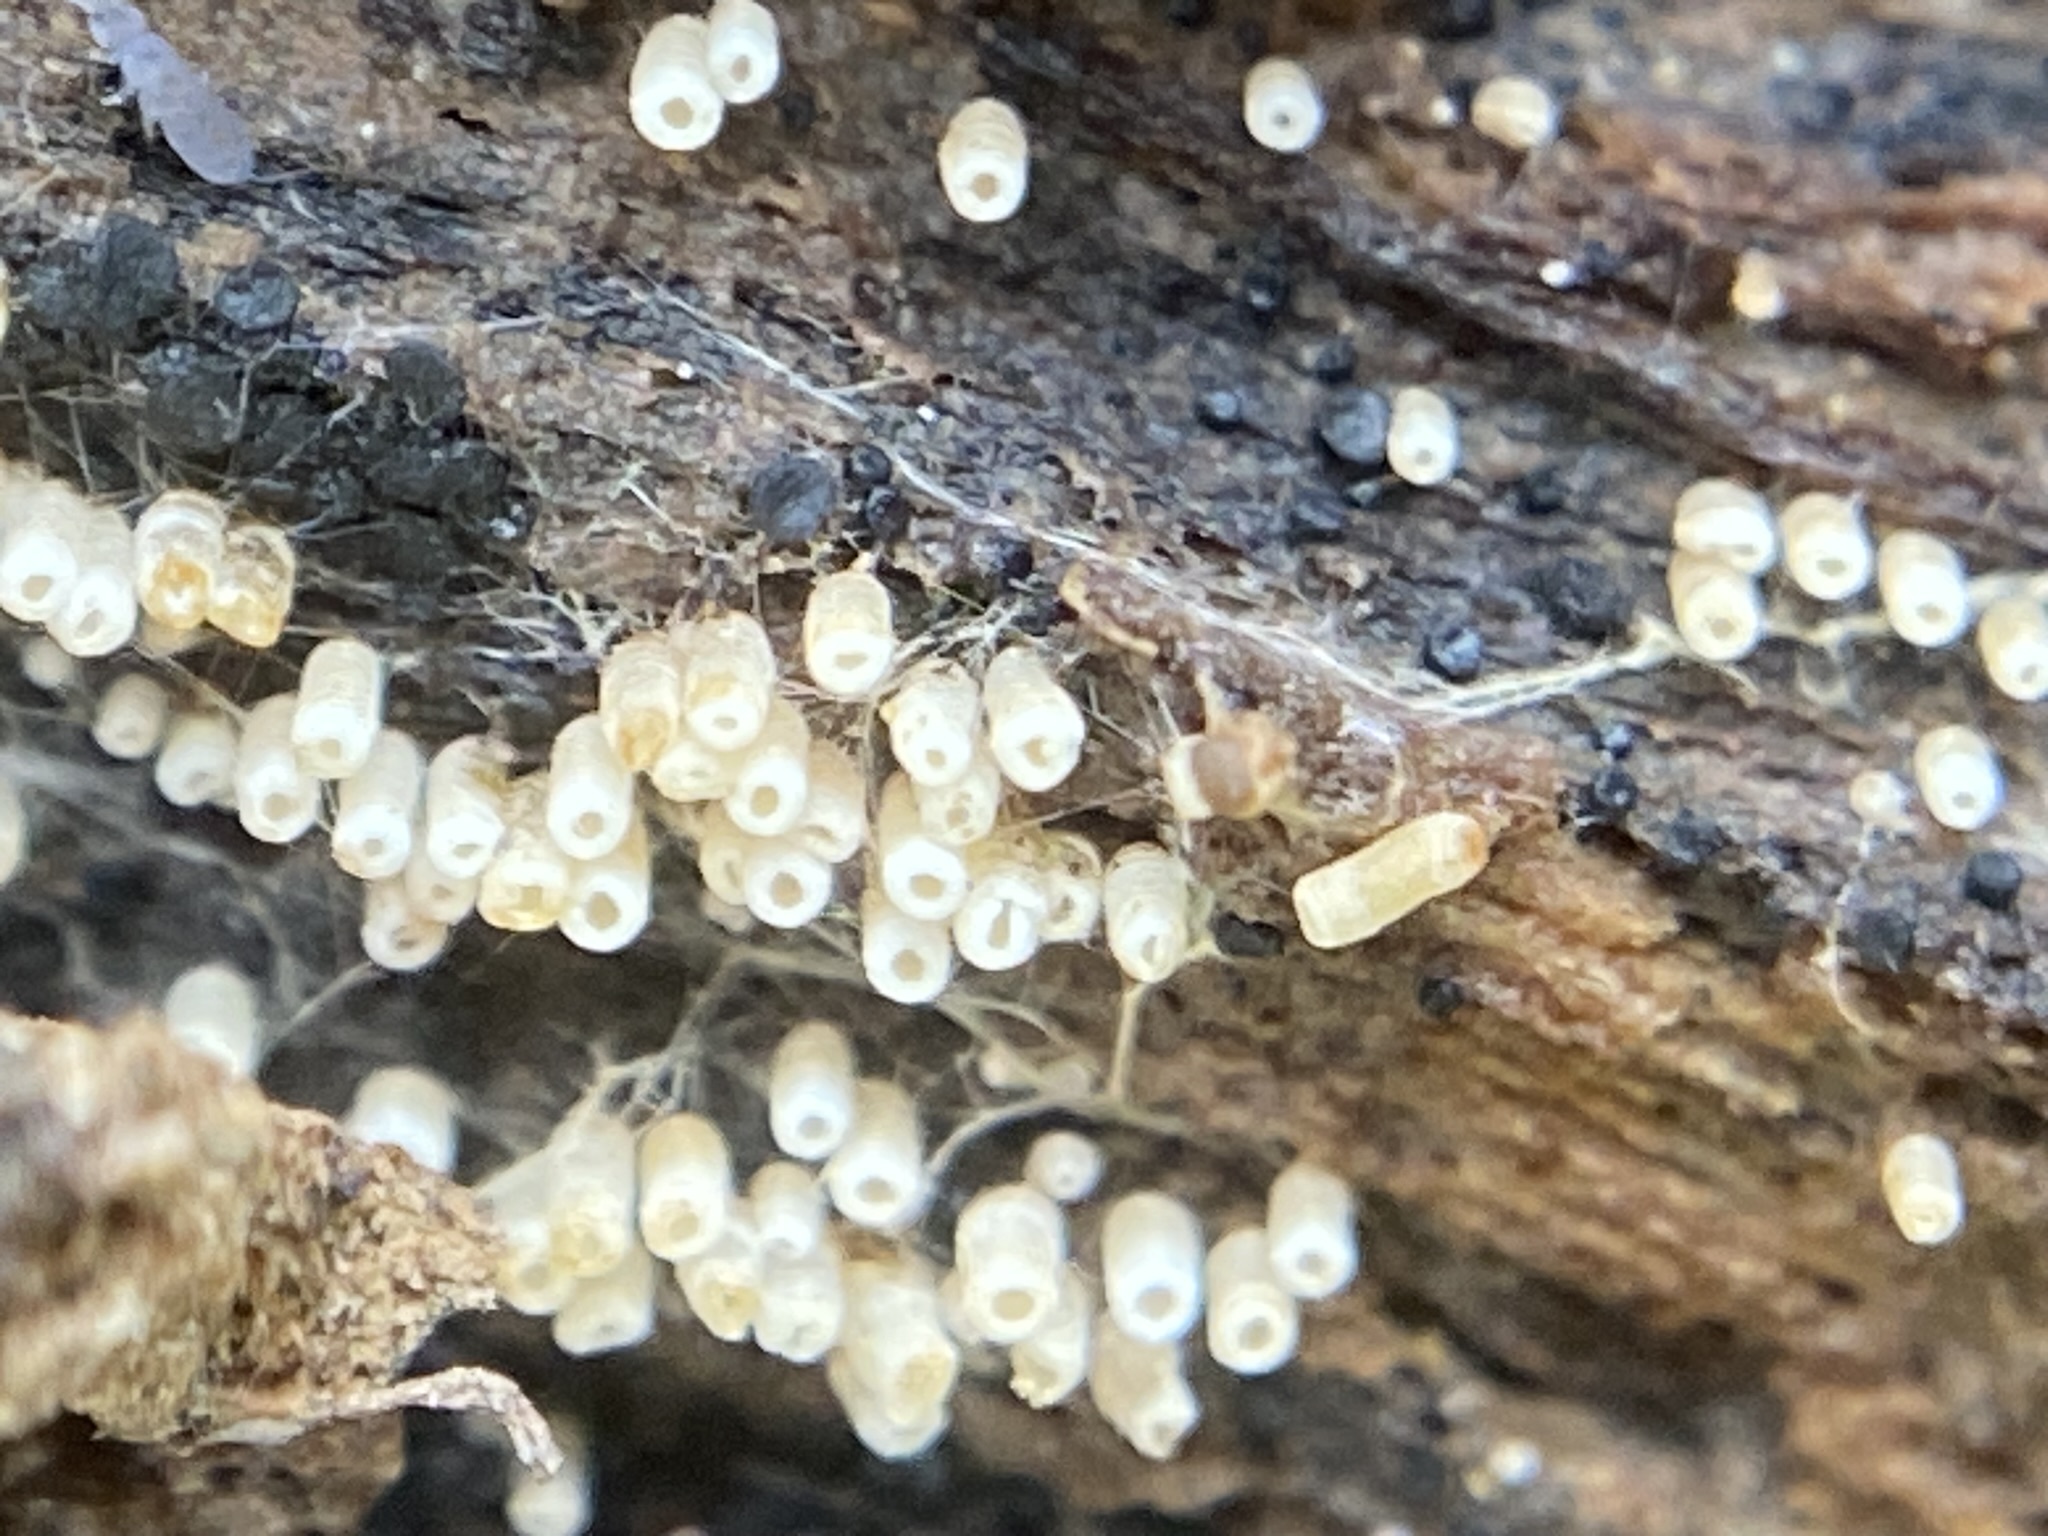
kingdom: Fungi
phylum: Basidiomycota
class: Agaricomycetes
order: Agaricales
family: Marasmiaceae
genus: Henningsomyces
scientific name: Henningsomyces candidus
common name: White tubelet
